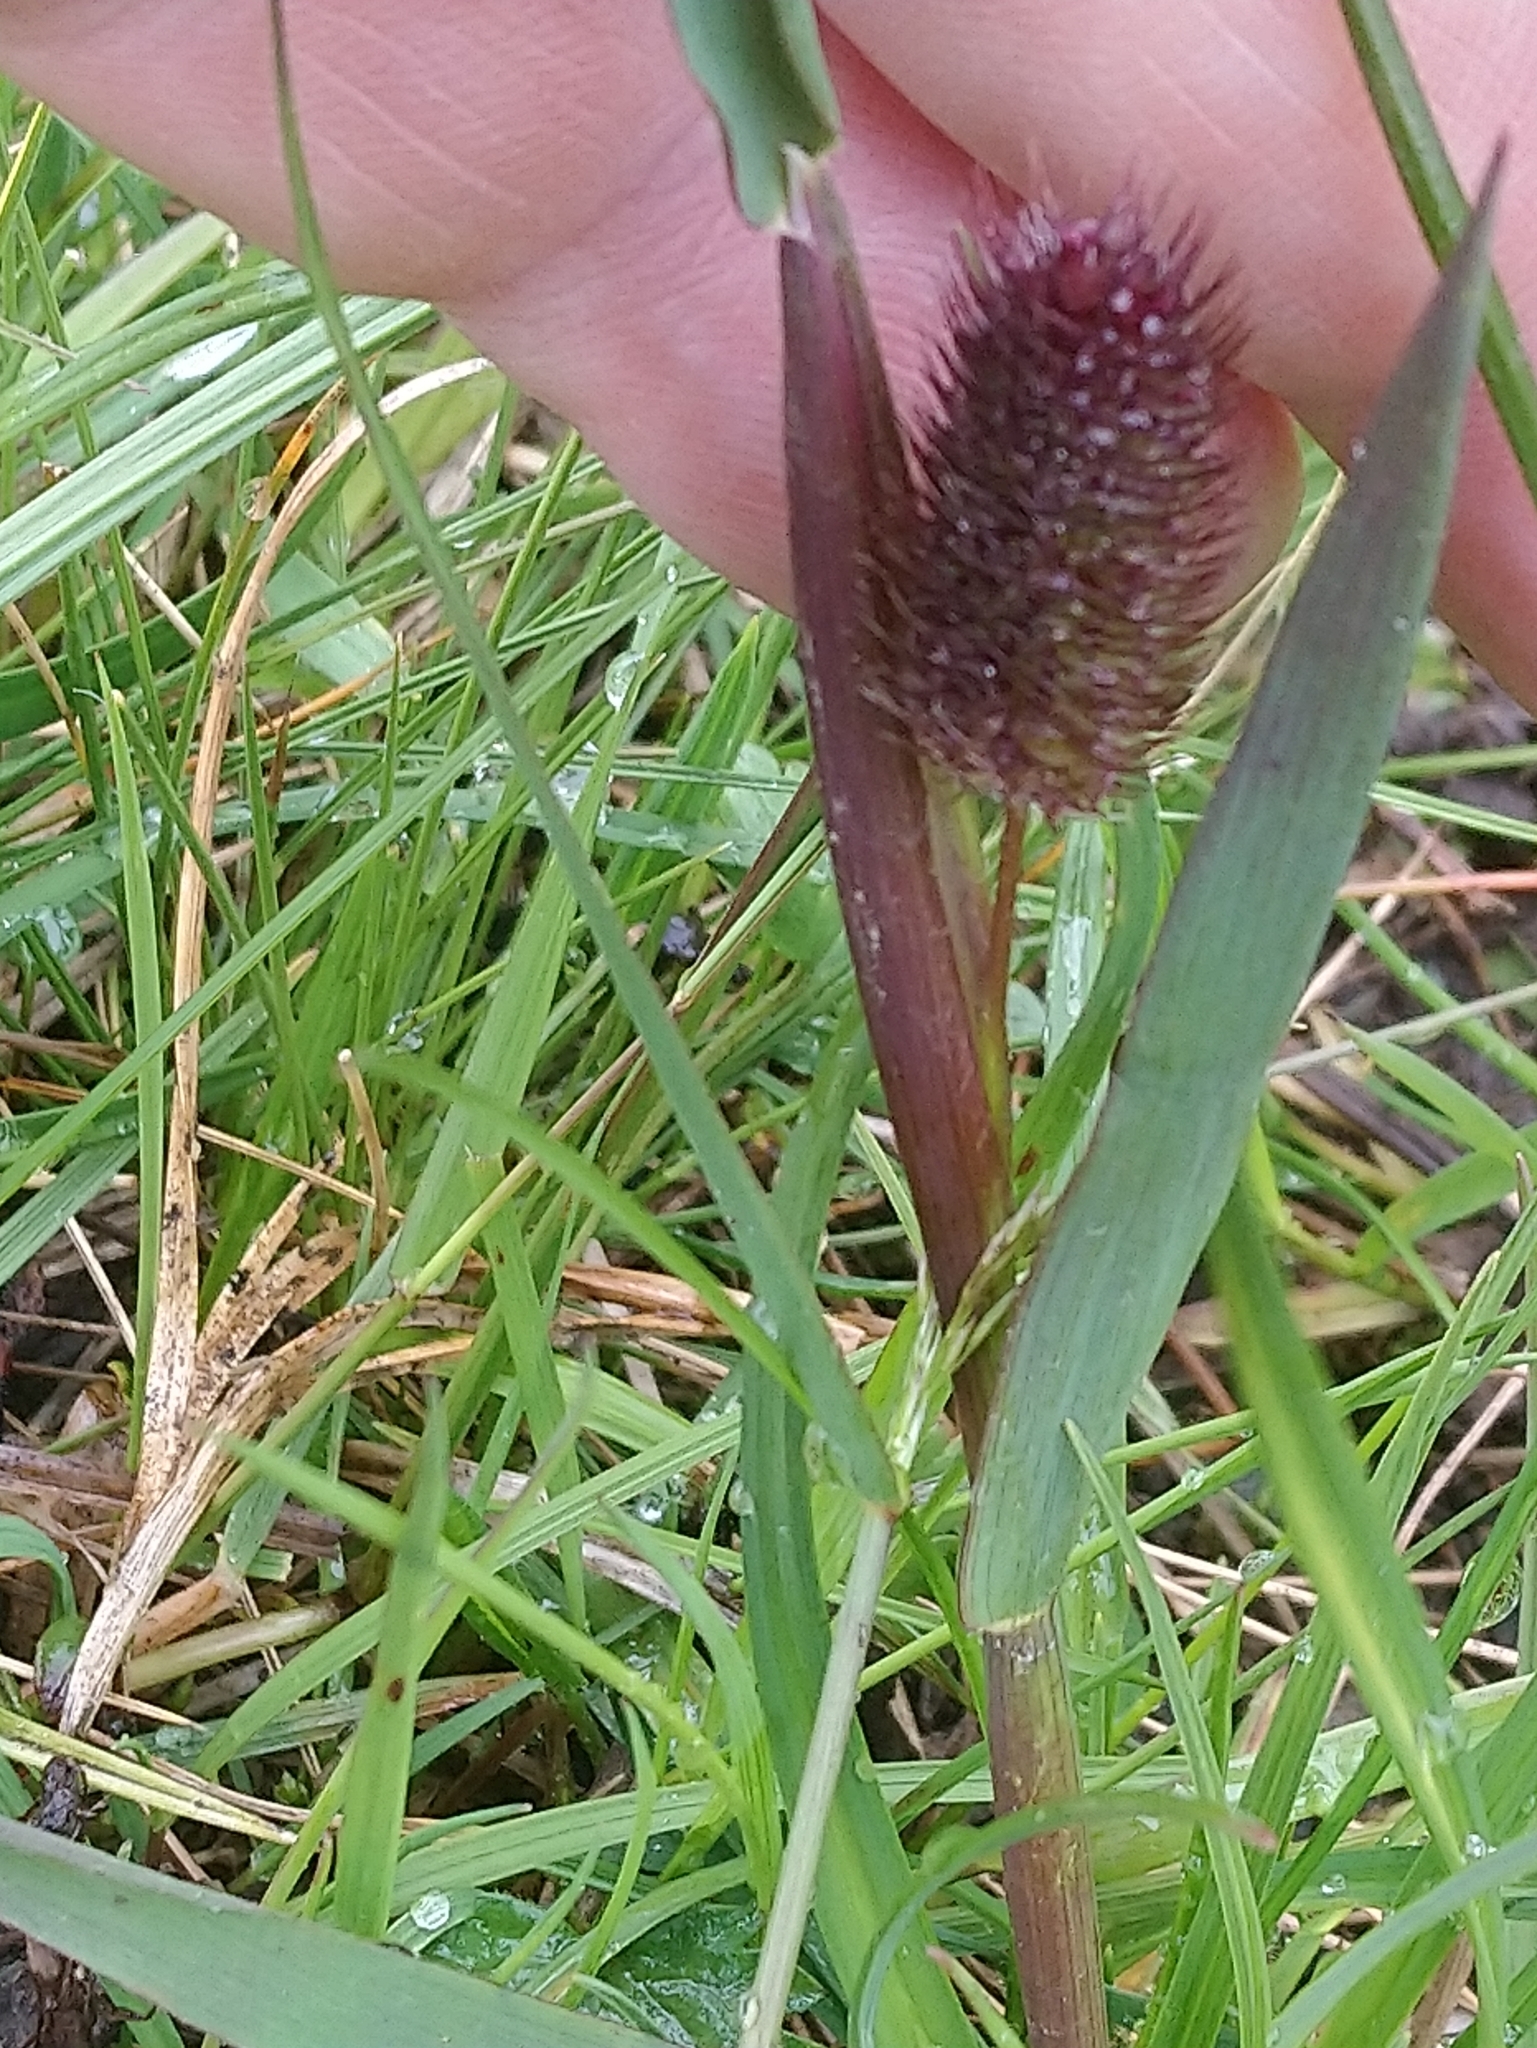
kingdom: Plantae
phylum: Tracheophyta
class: Liliopsida
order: Poales
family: Poaceae
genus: Phleum
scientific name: Phleum alpinum
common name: Alpine cat's-tail
